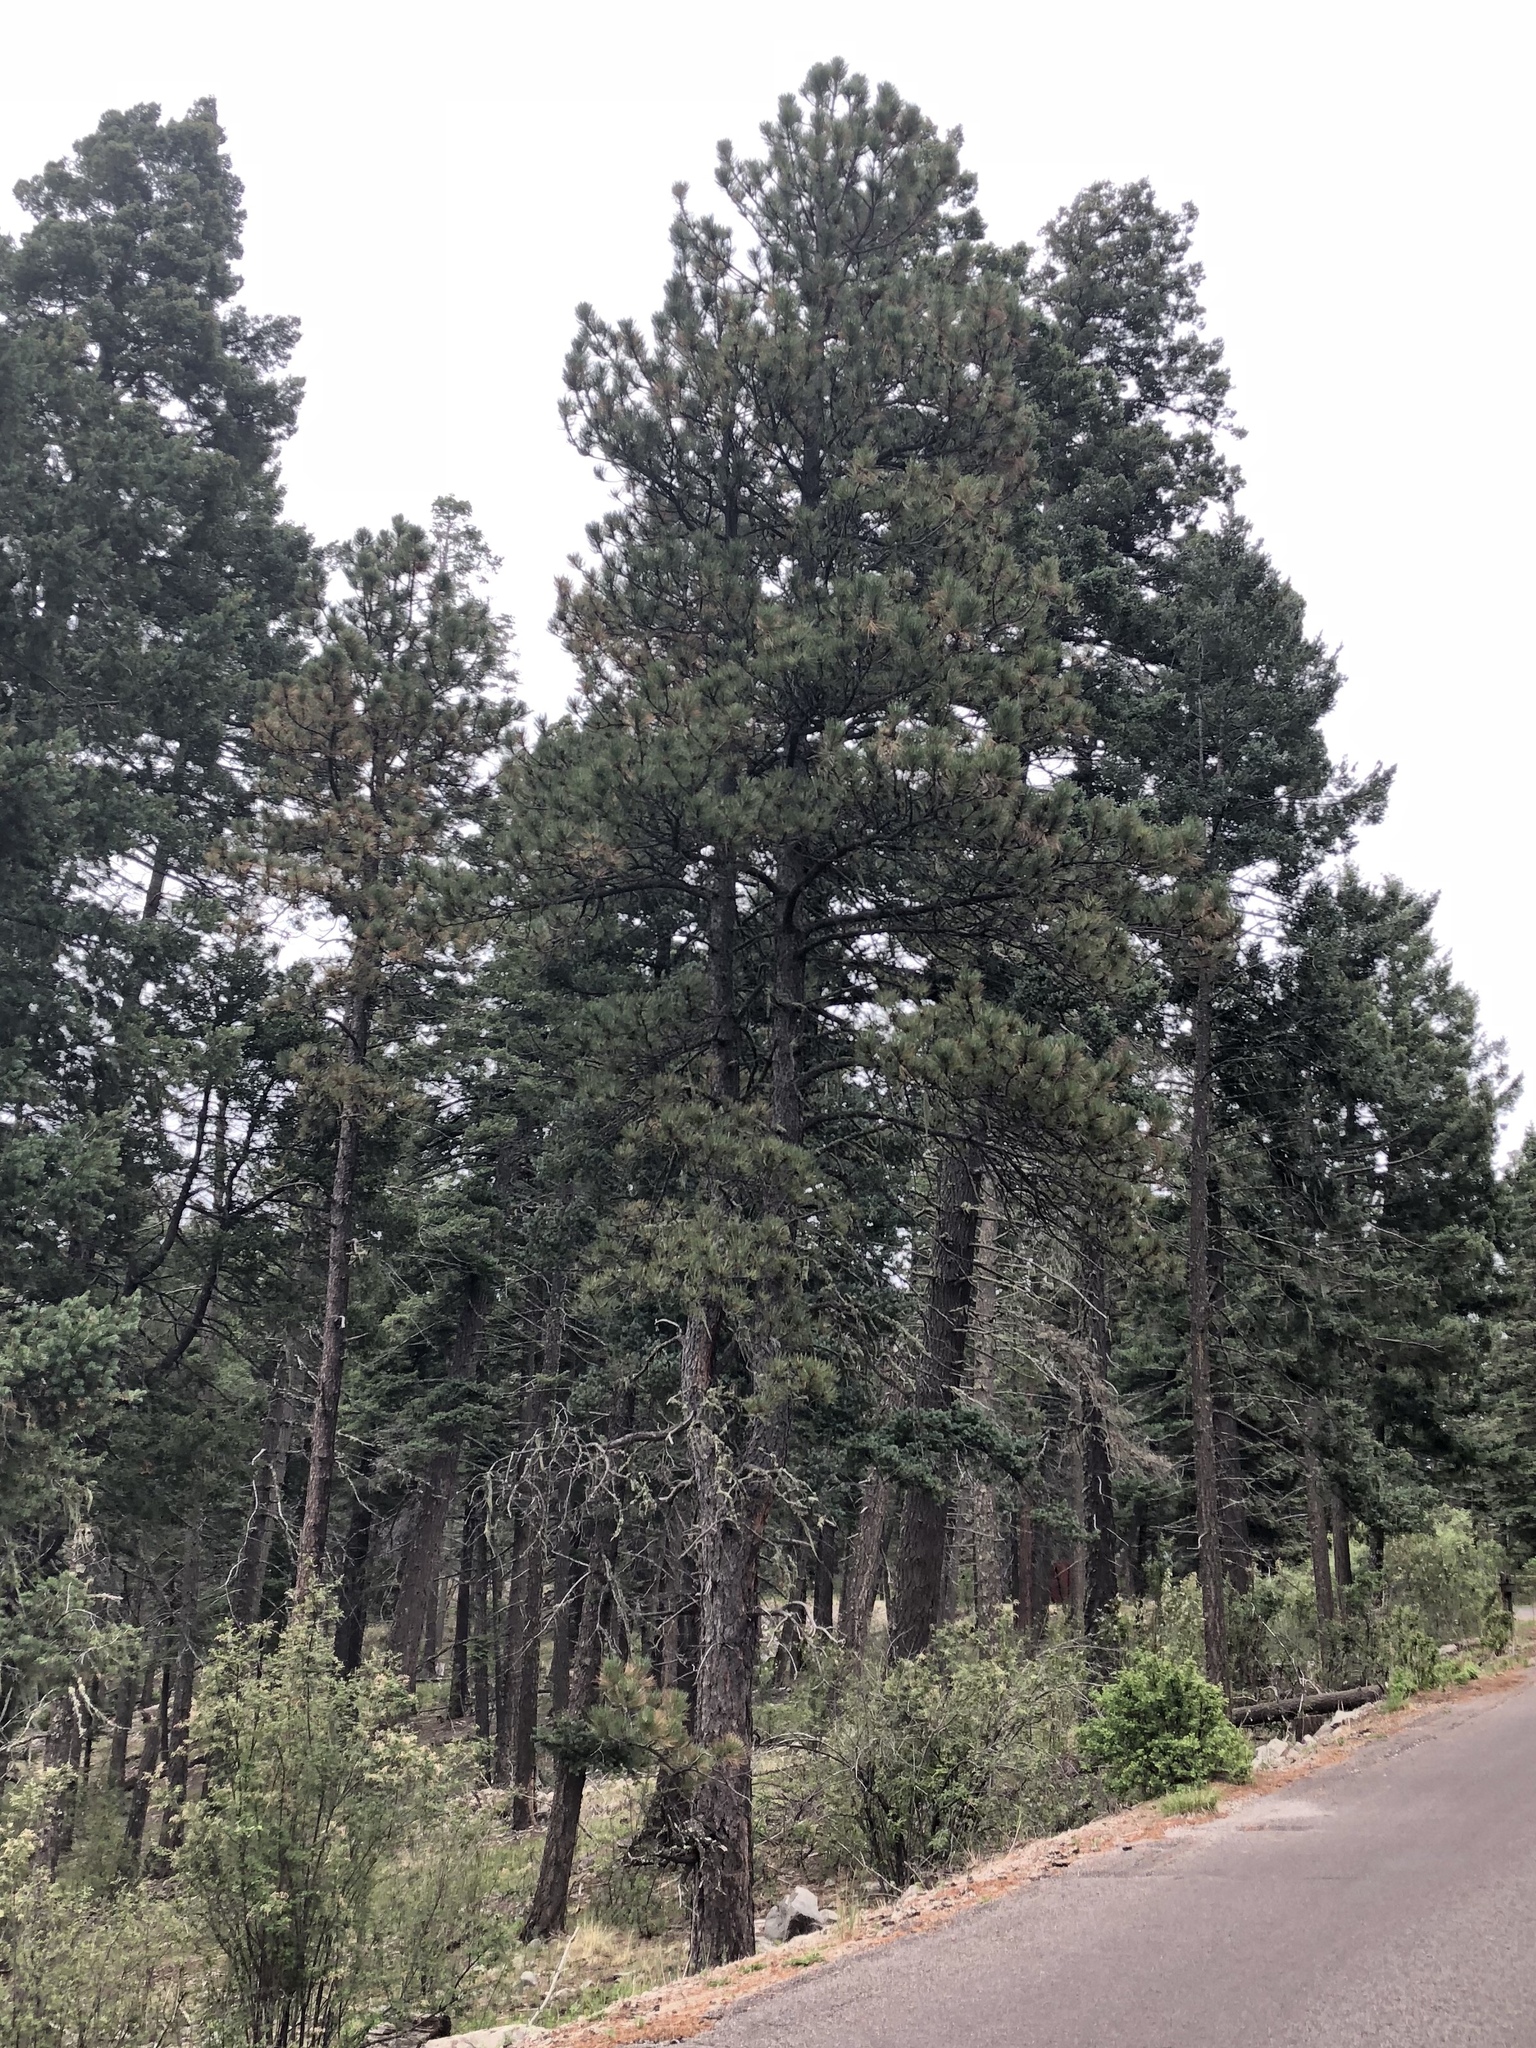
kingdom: Plantae
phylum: Tracheophyta
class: Pinopsida
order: Pinales
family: Pinaceae
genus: Pinus
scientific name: Pinus ponderosa
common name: Western yellow-pine
